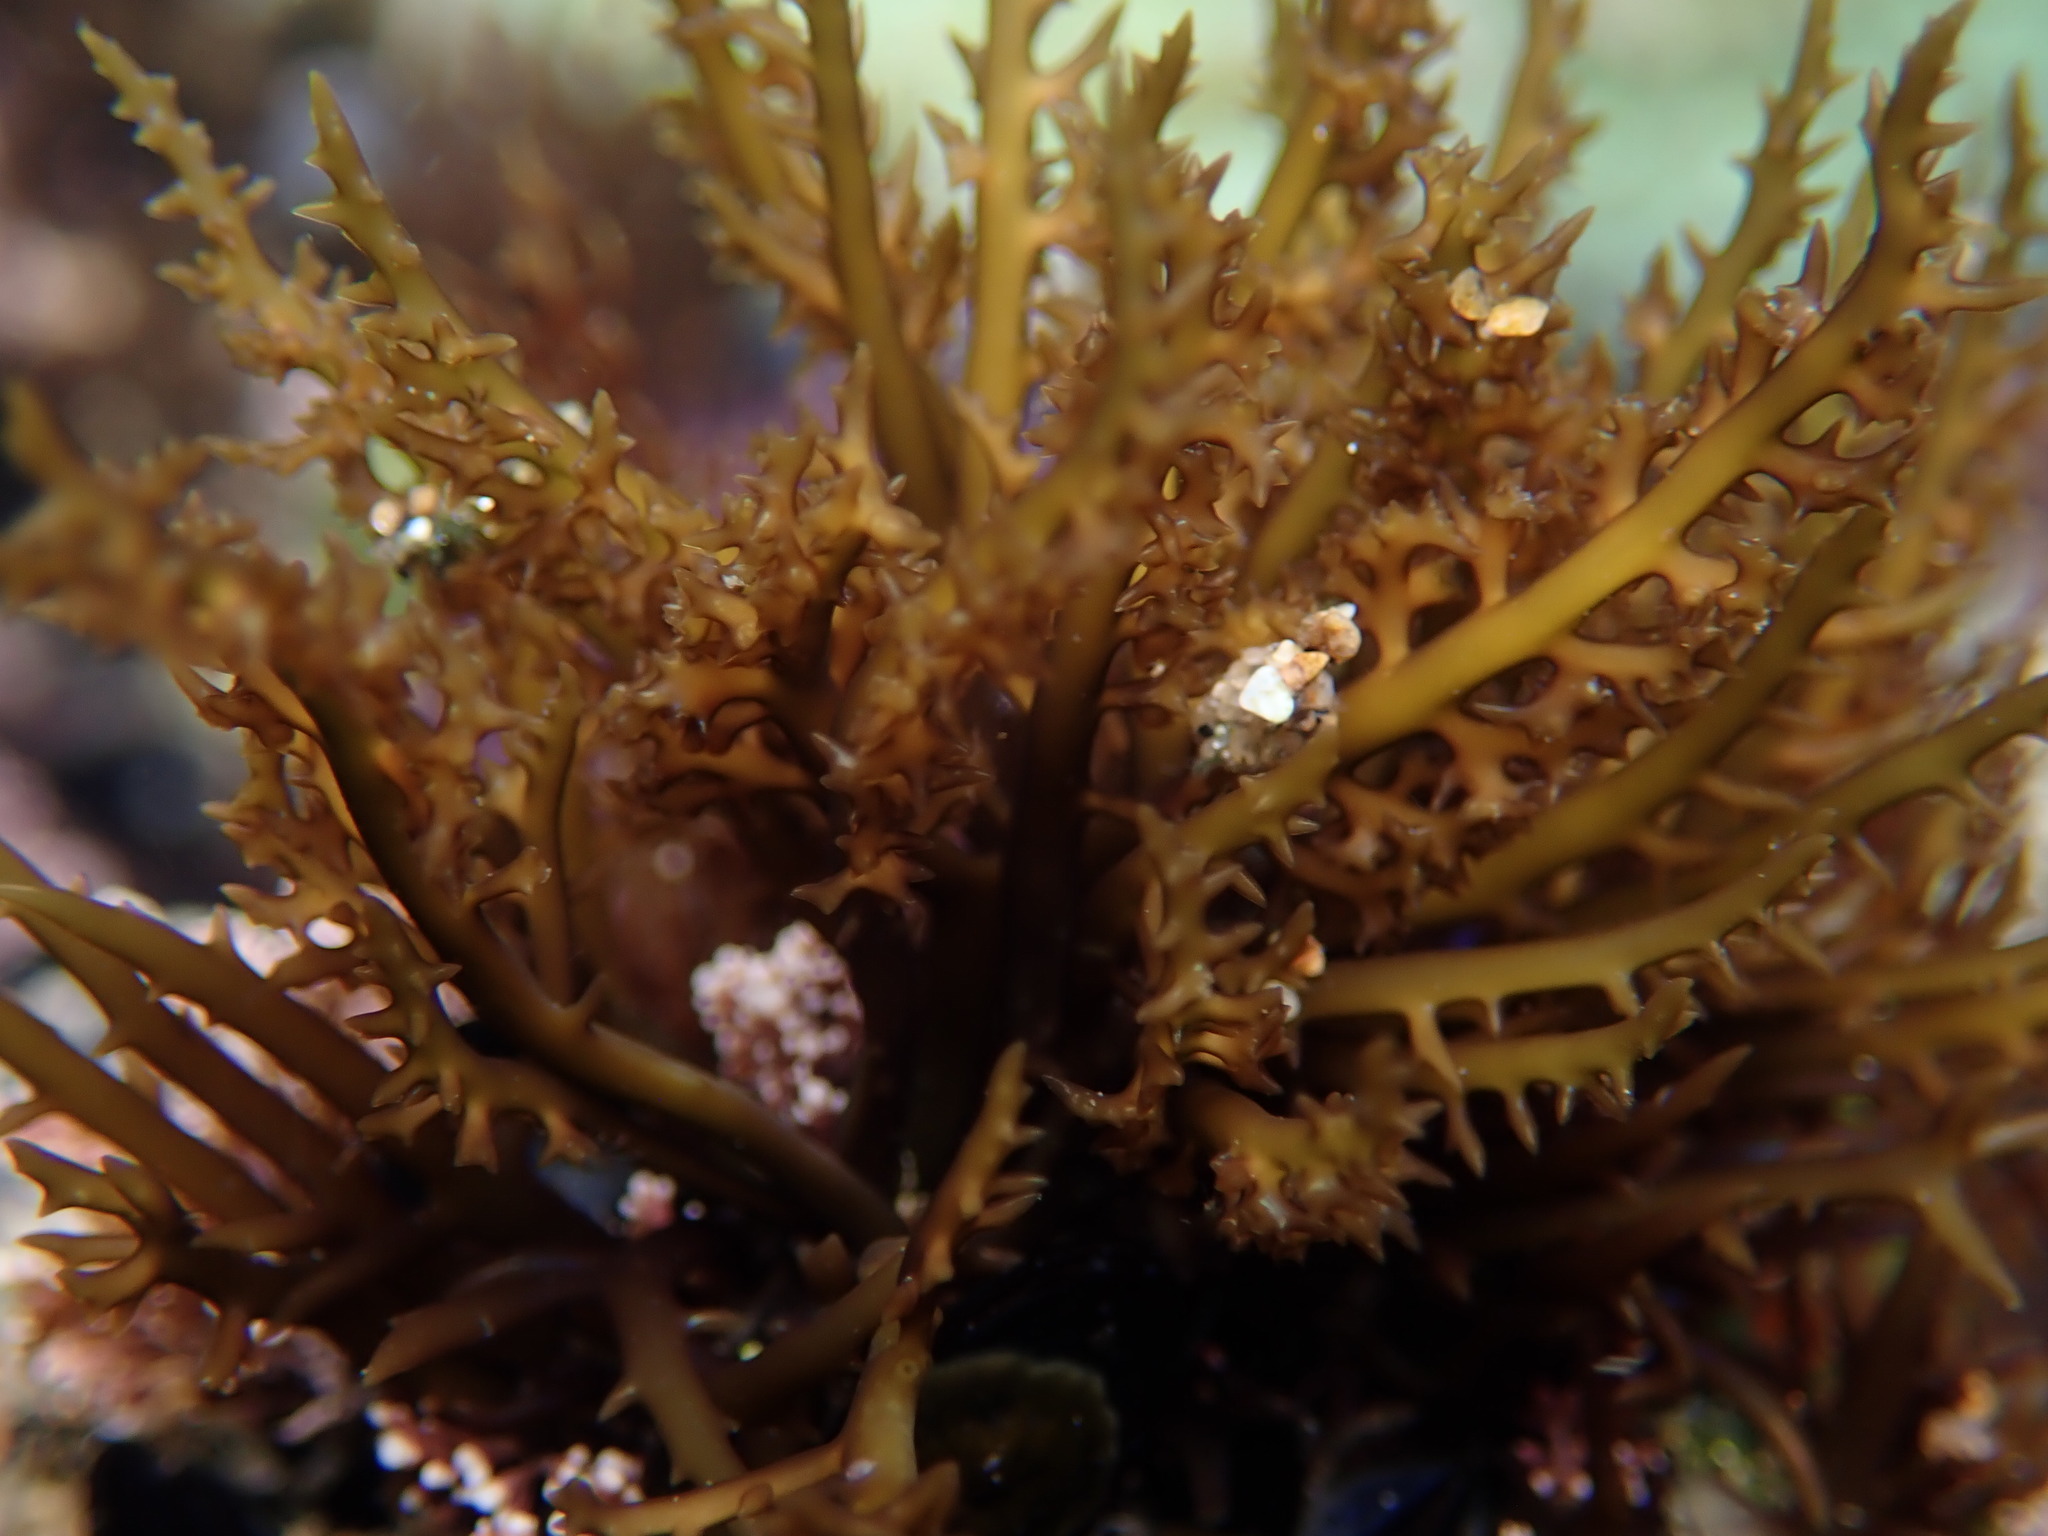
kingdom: Plantae
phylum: Rhodophyta
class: Florideophyceae
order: Gigartinales
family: Gigartinaceae
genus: Chondracanthus
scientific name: Chondracanthus canaliculatus
